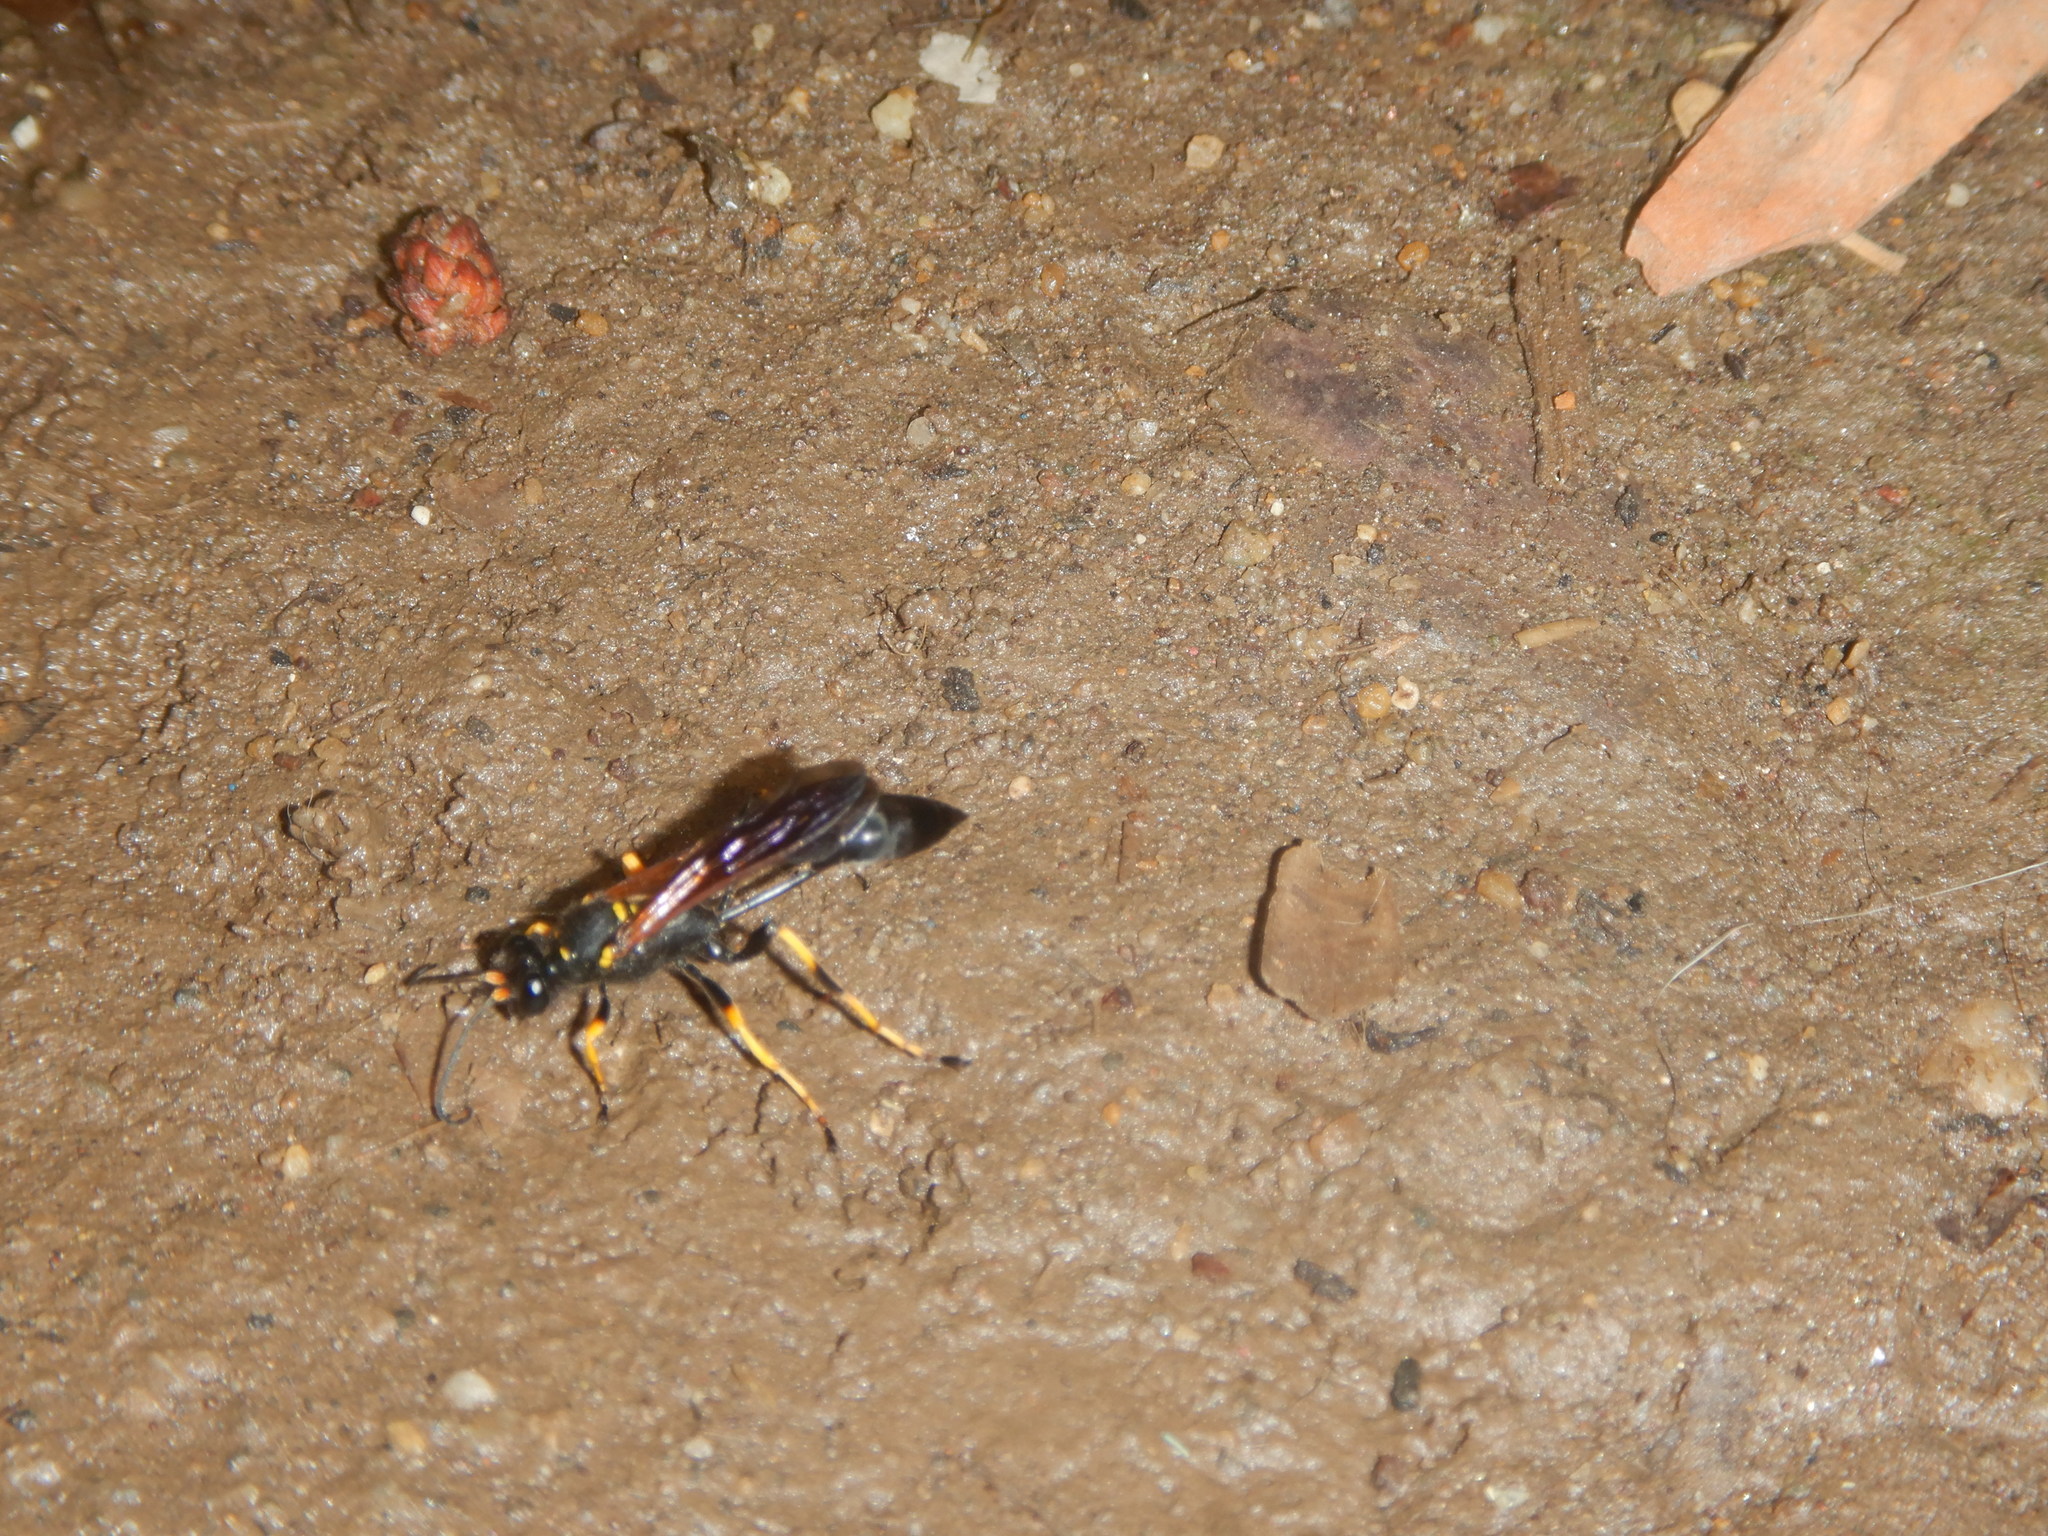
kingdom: Animalia
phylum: Arthropoda
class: Insecta
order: Hymenoptera
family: Sphecidae
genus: Sceliphron
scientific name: Sceliphron caementarium
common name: Mud dauber
